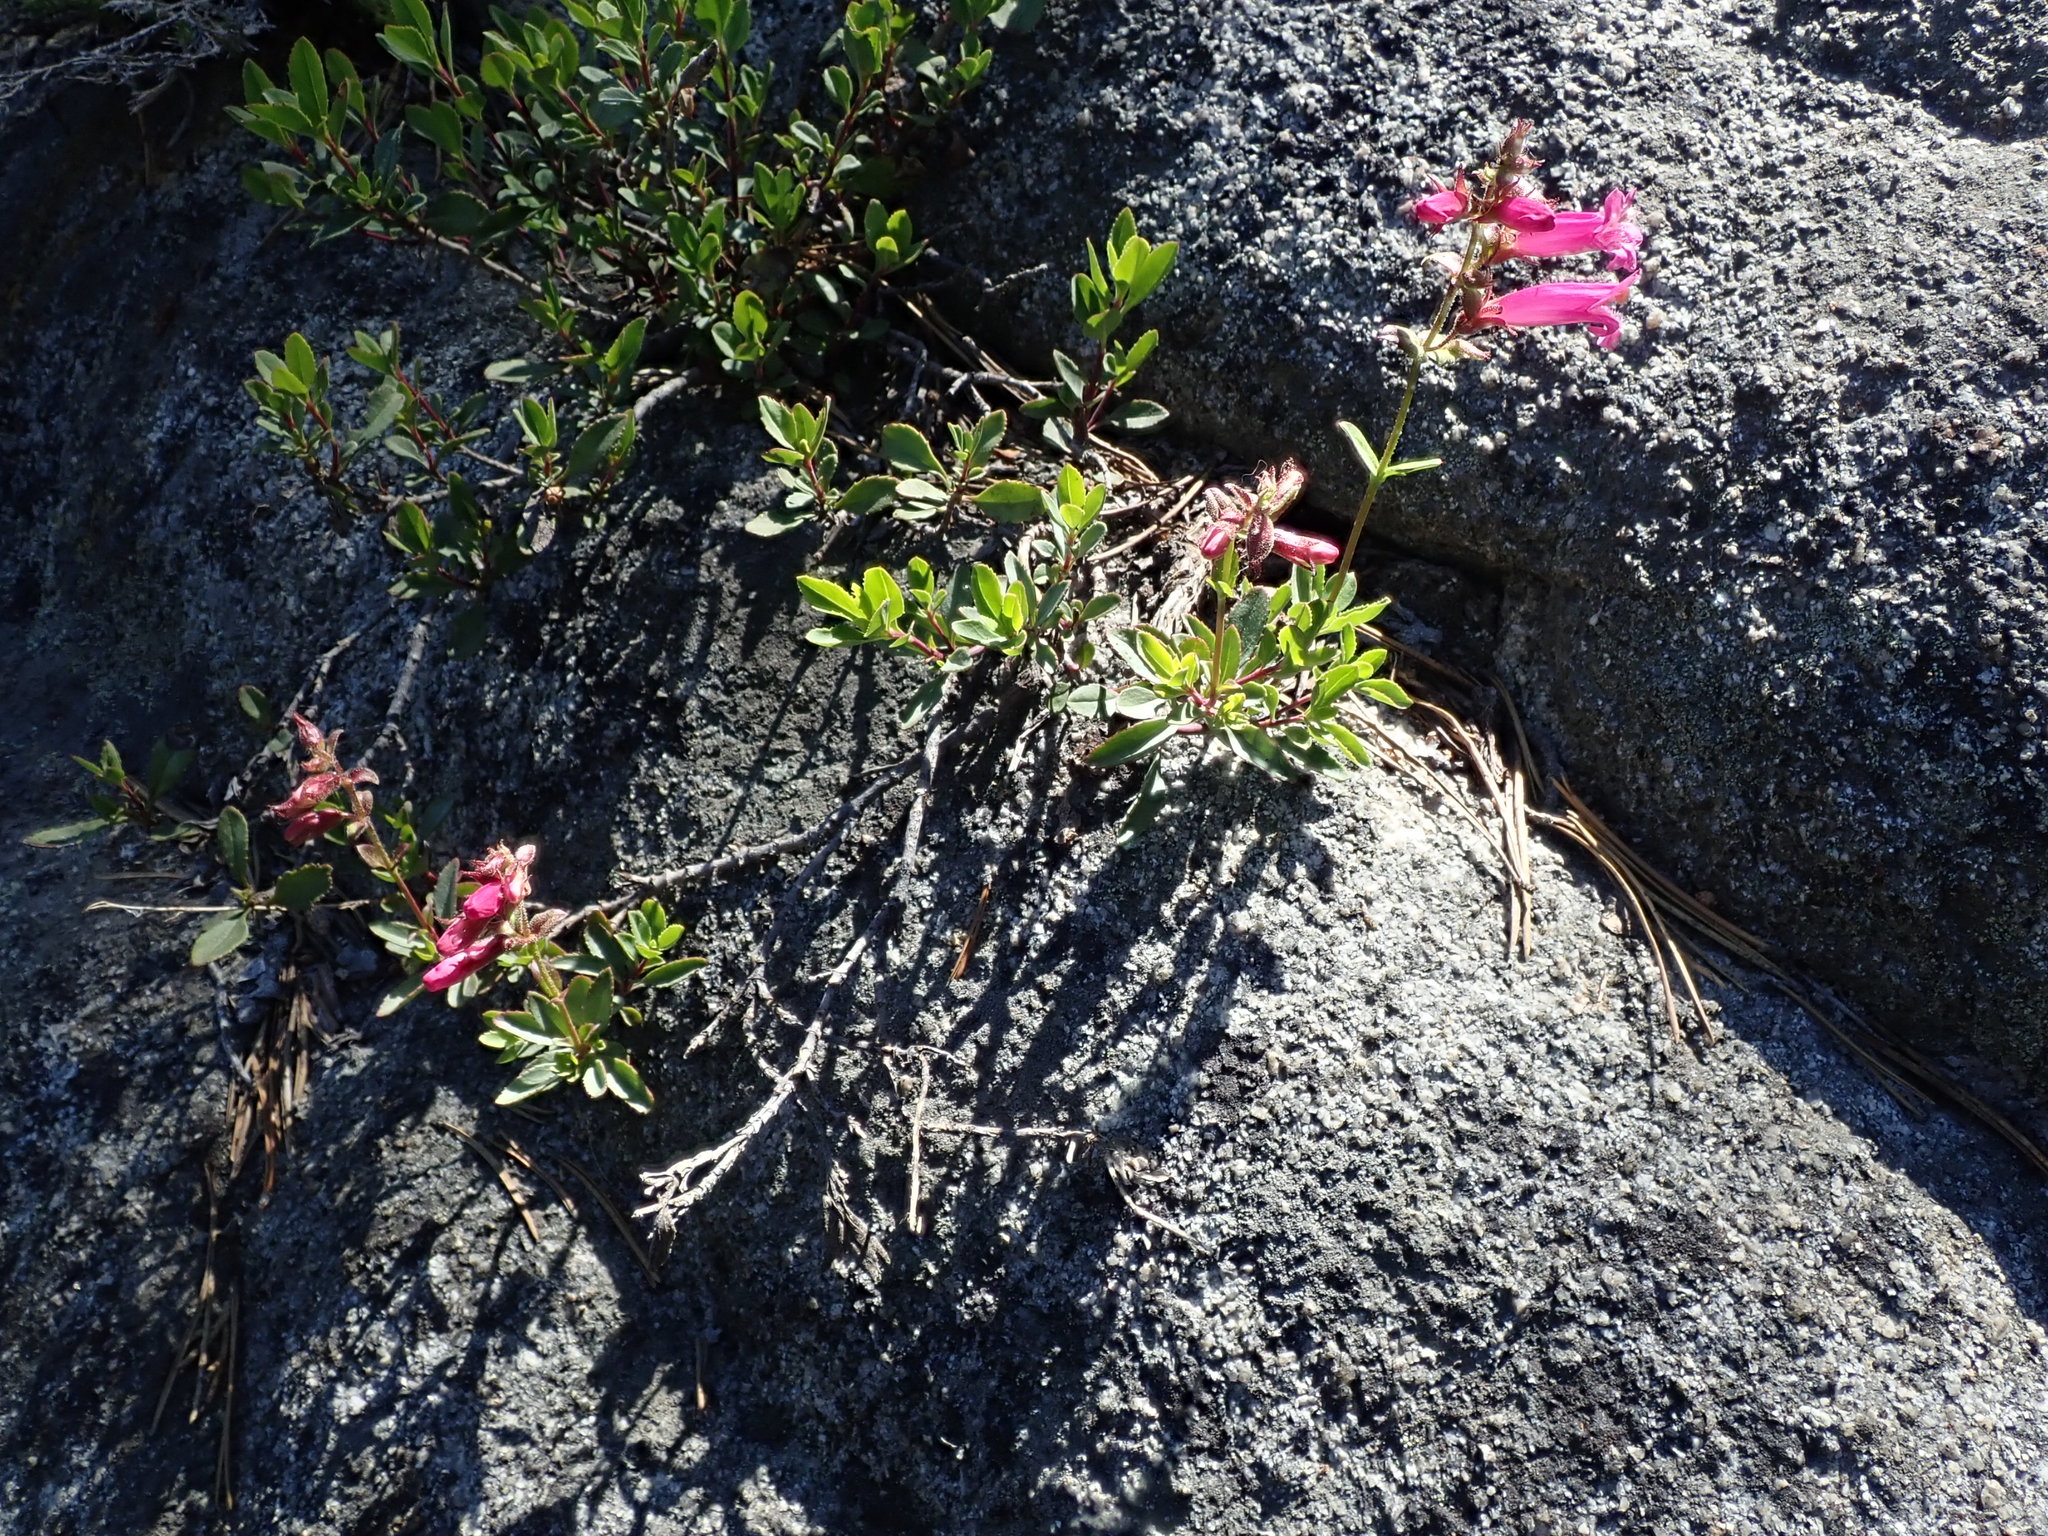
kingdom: Plantae
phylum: Tracheophyta
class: Magnoliopsida
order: Lamiales
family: Plantaginaceae
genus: Penstemon
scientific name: Penstemon newberryi
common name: Mountain-pride
